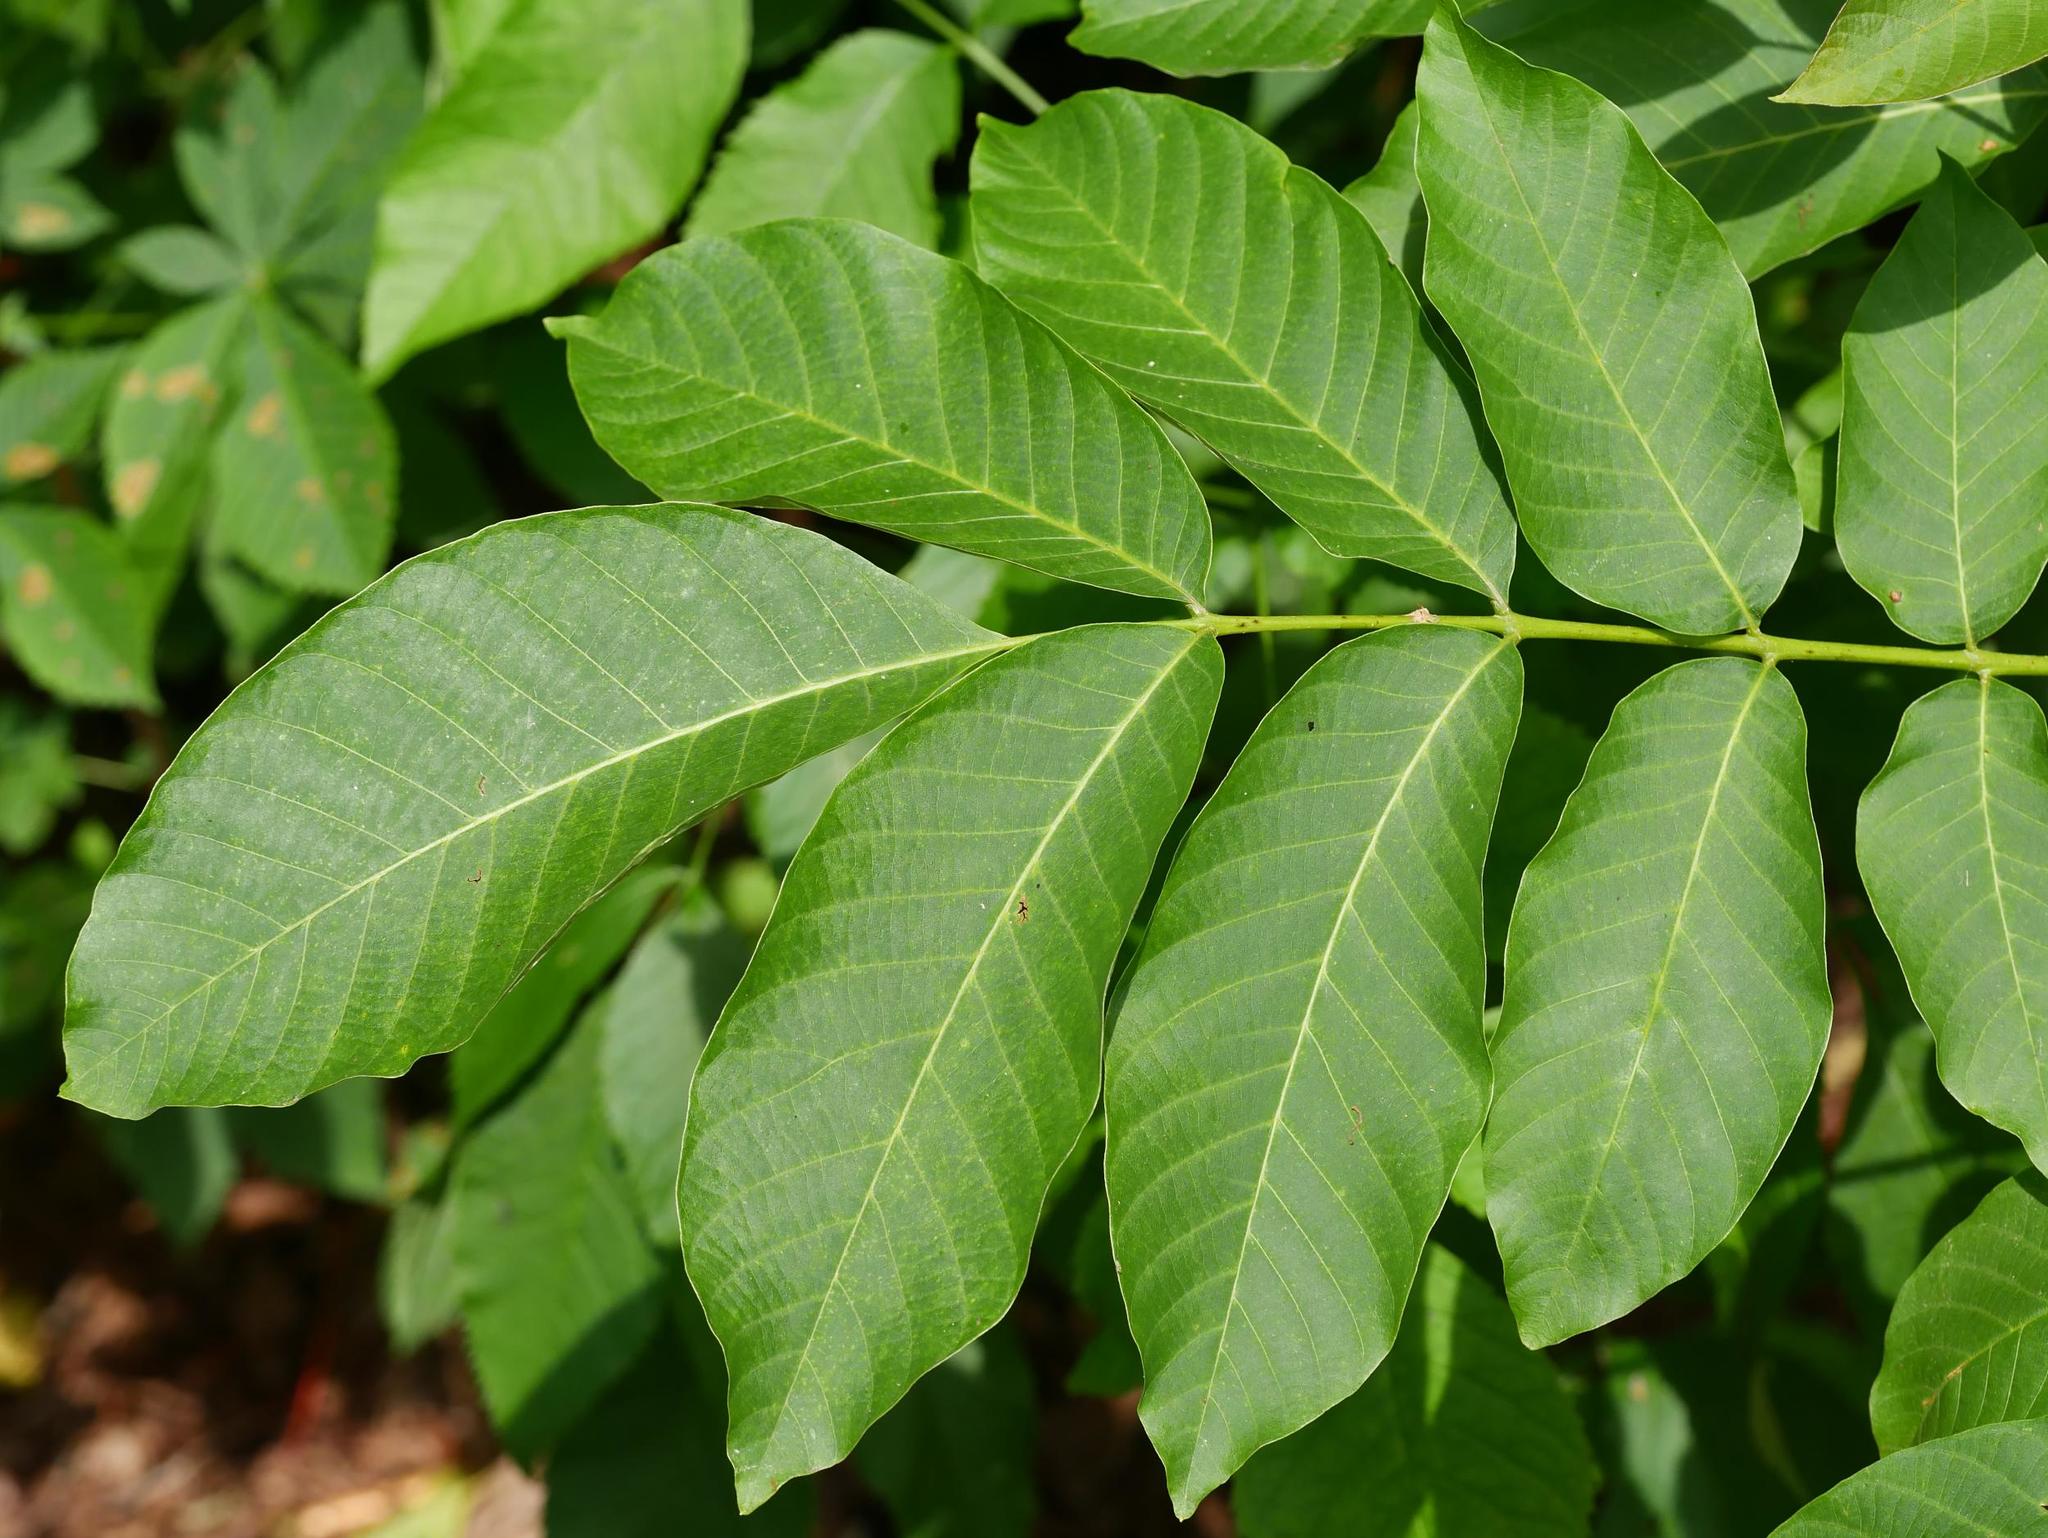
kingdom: Plantae
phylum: Tracheophyta
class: Magnoliopsida
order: Fagales
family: Juglandaceae
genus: Juglans
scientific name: Juglans regia
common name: Walnut
